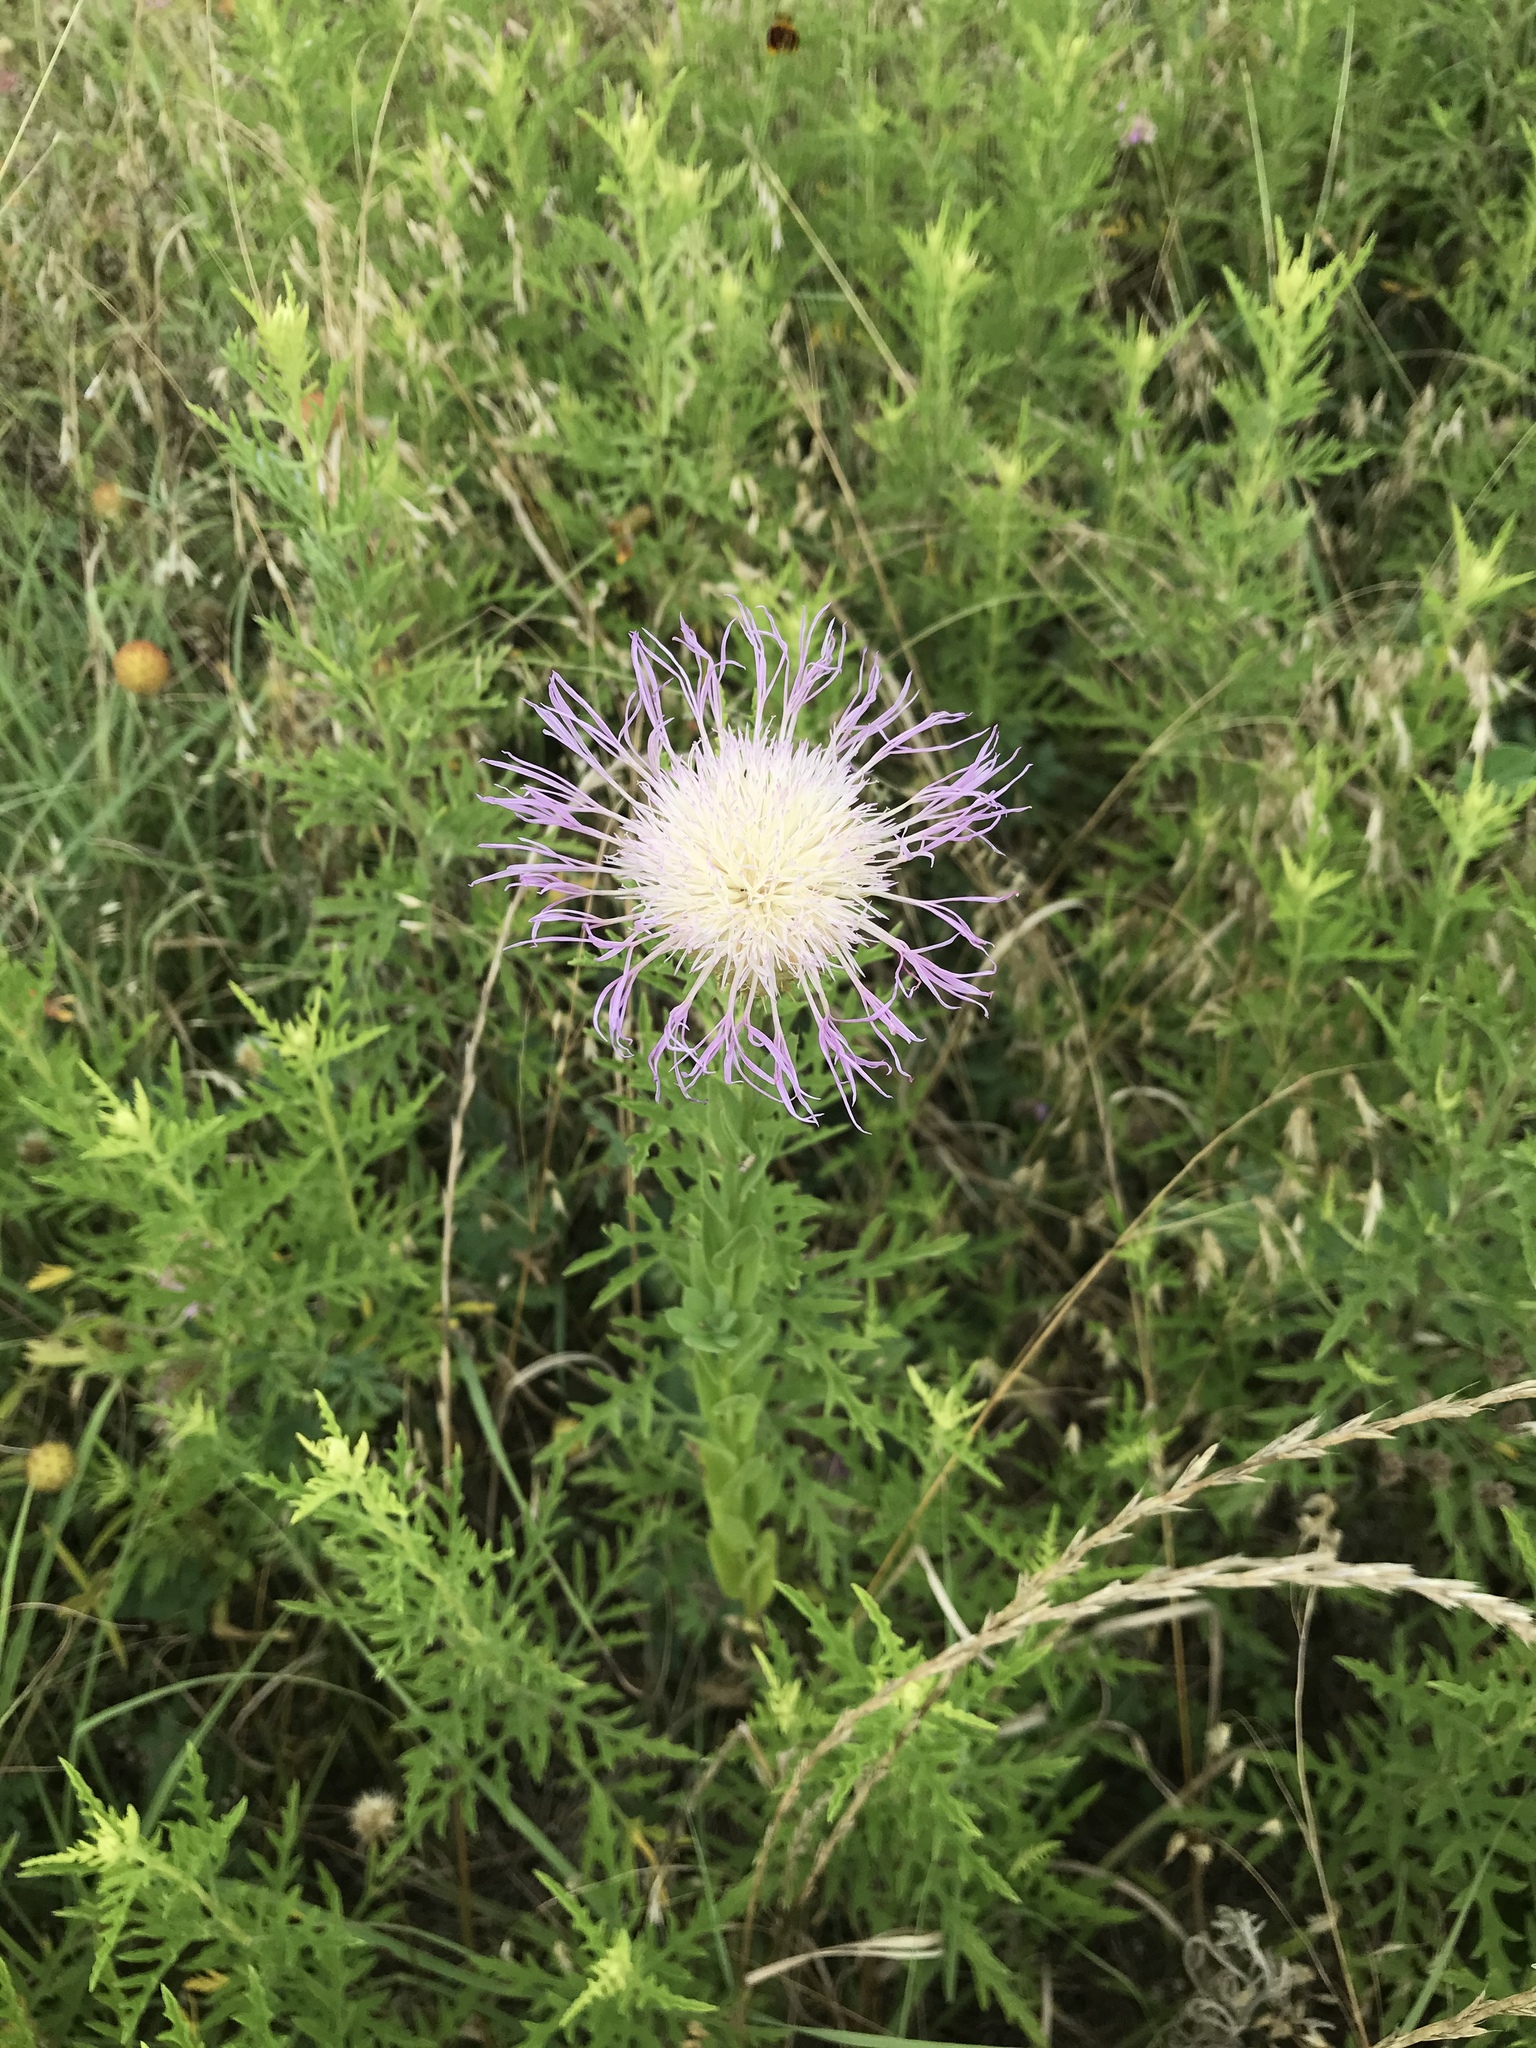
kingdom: Plantae
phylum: Tracheophyta
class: Magnoliopsida
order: Asterales
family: Asteraceae
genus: Plectocephalus
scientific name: Plectocephalus americanus
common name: American basket-flower
